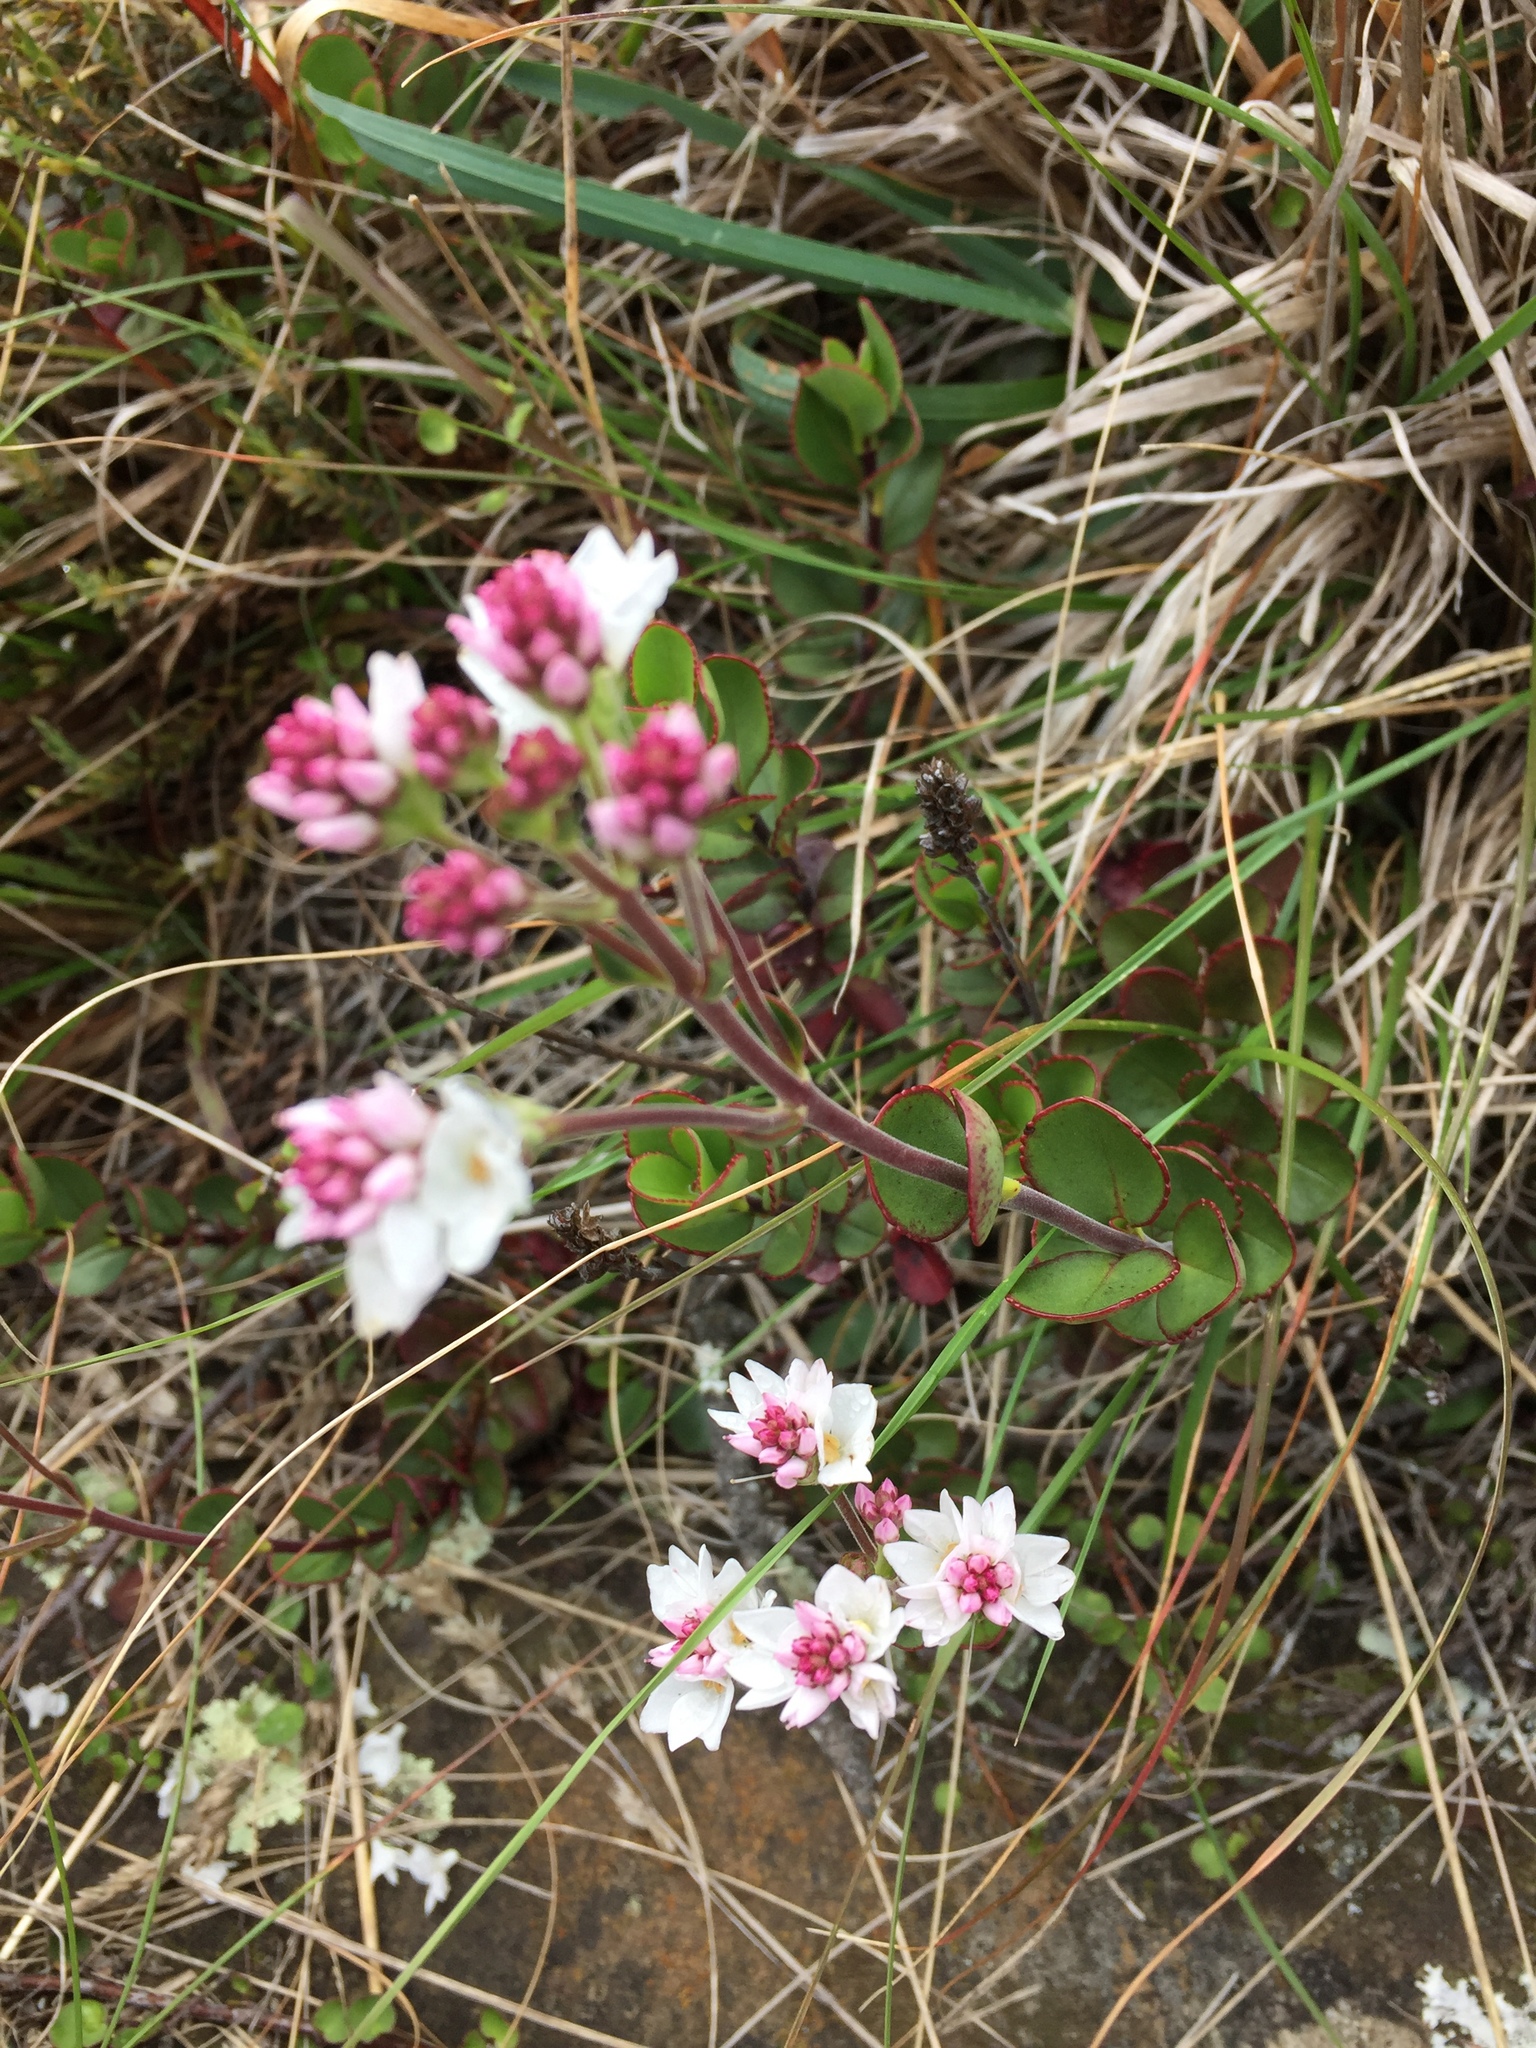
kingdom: Plantae
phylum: Tracheophyta
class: Magnoliopsida
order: Lamiales
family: Plantaginaceae
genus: Veronica
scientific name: Veronica lavaudiana
